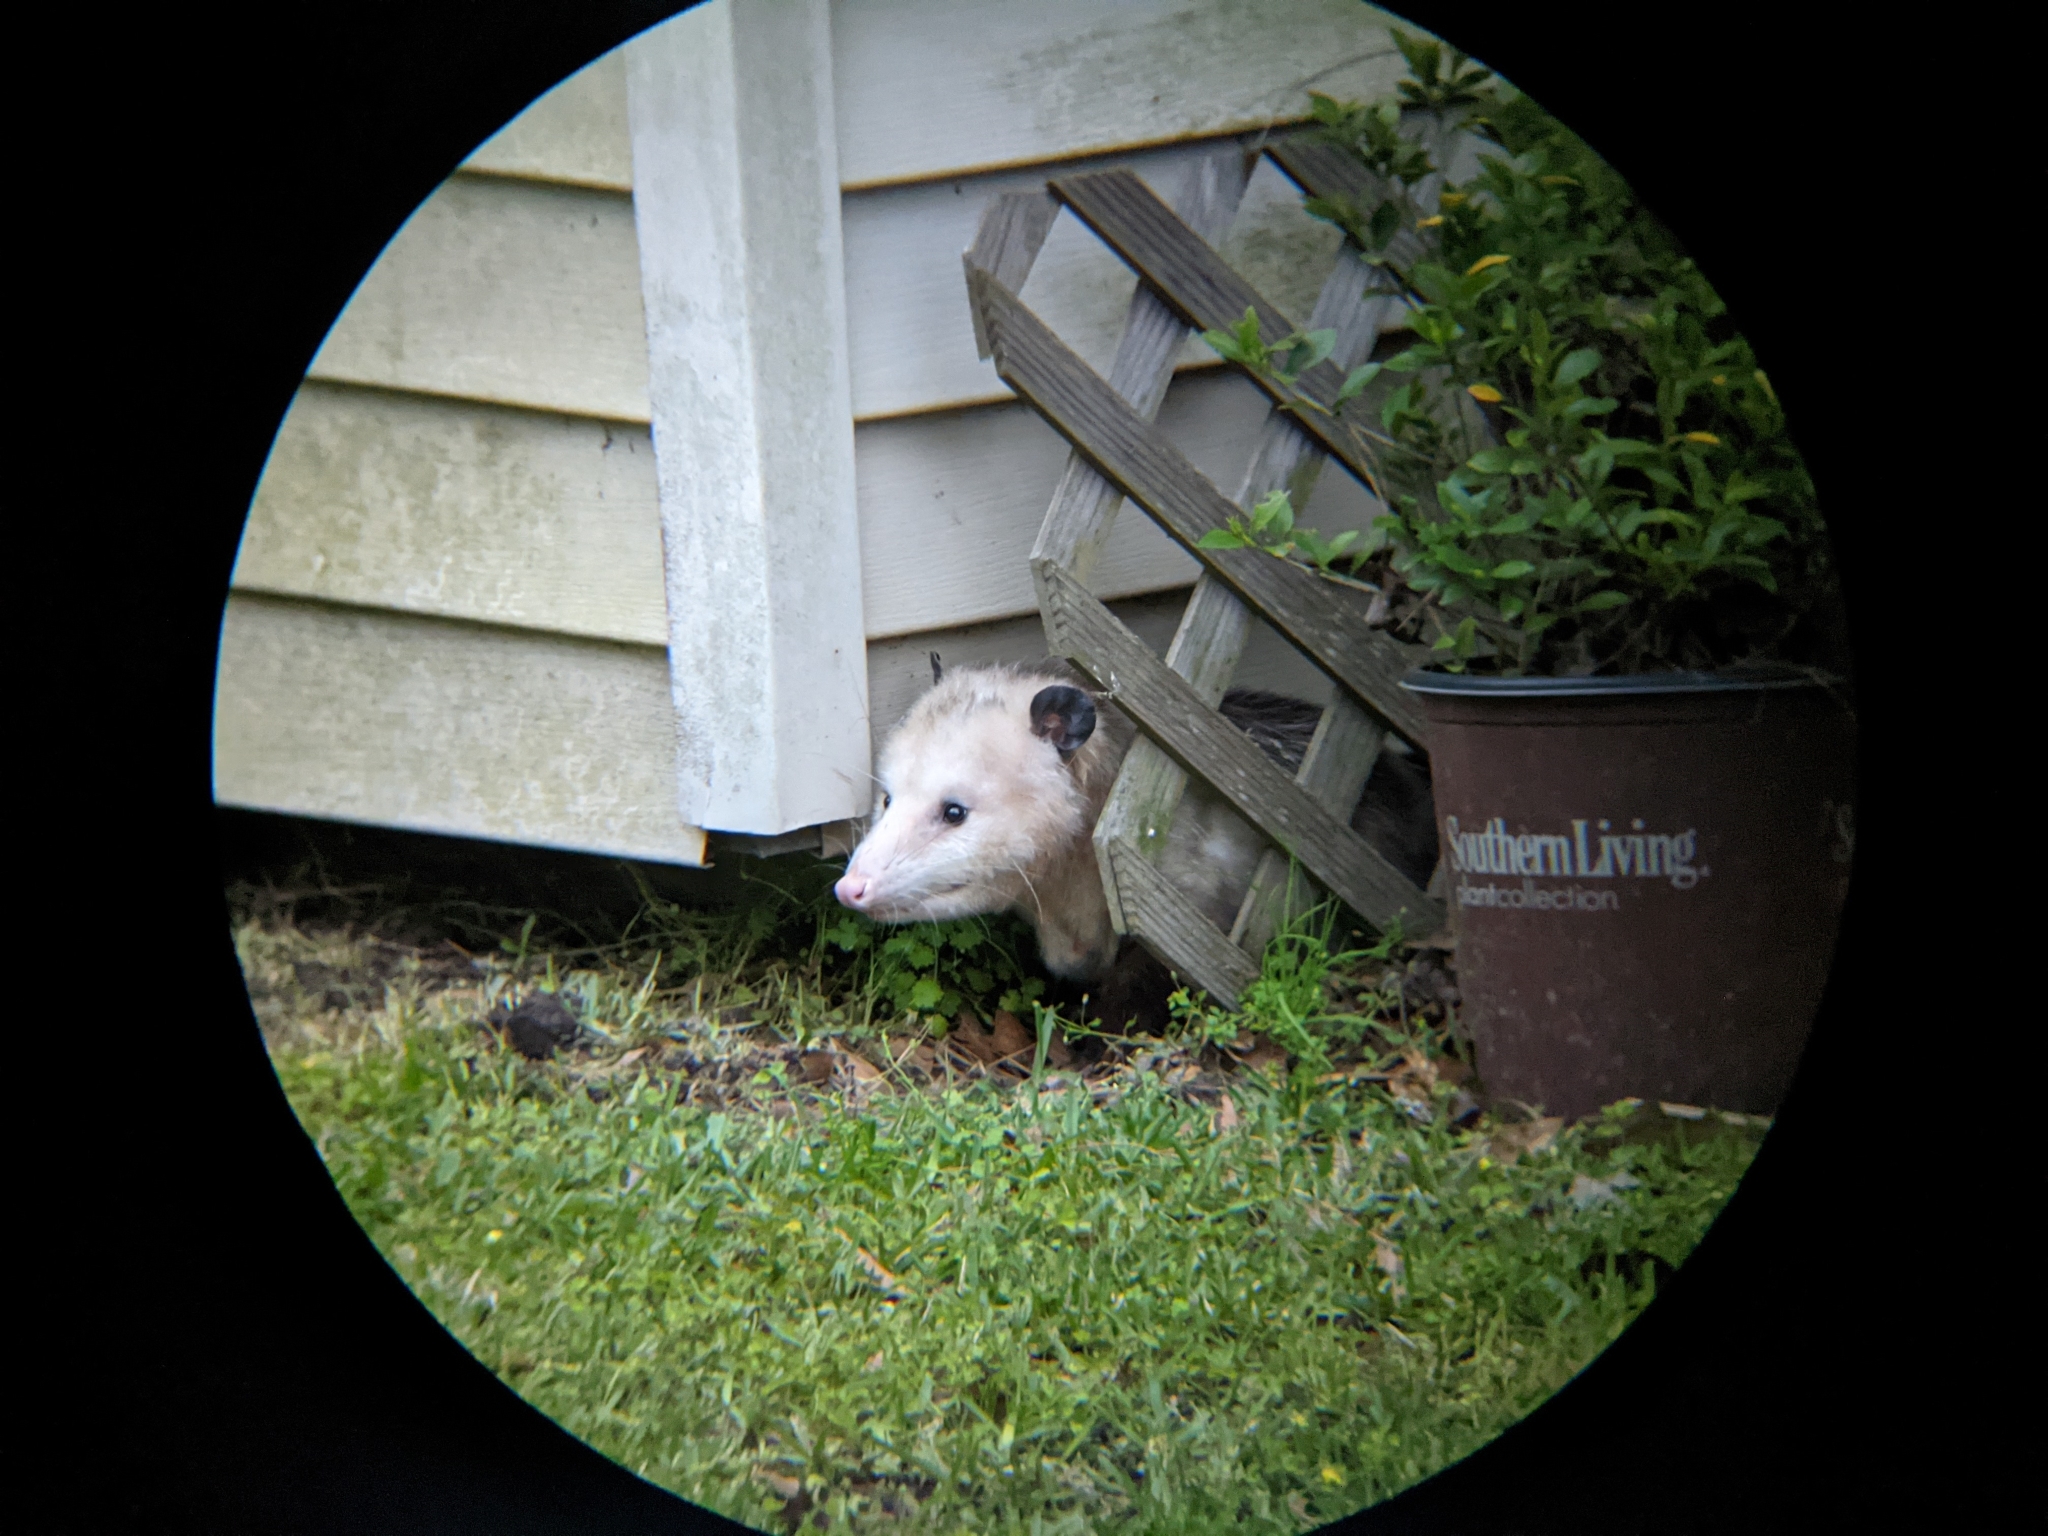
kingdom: Animalia
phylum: Chordata
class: Mammalia
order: Didelphimorphia
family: Didelphidae
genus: Didelphis
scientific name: Didelphis virginiana
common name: Virginia opossum
